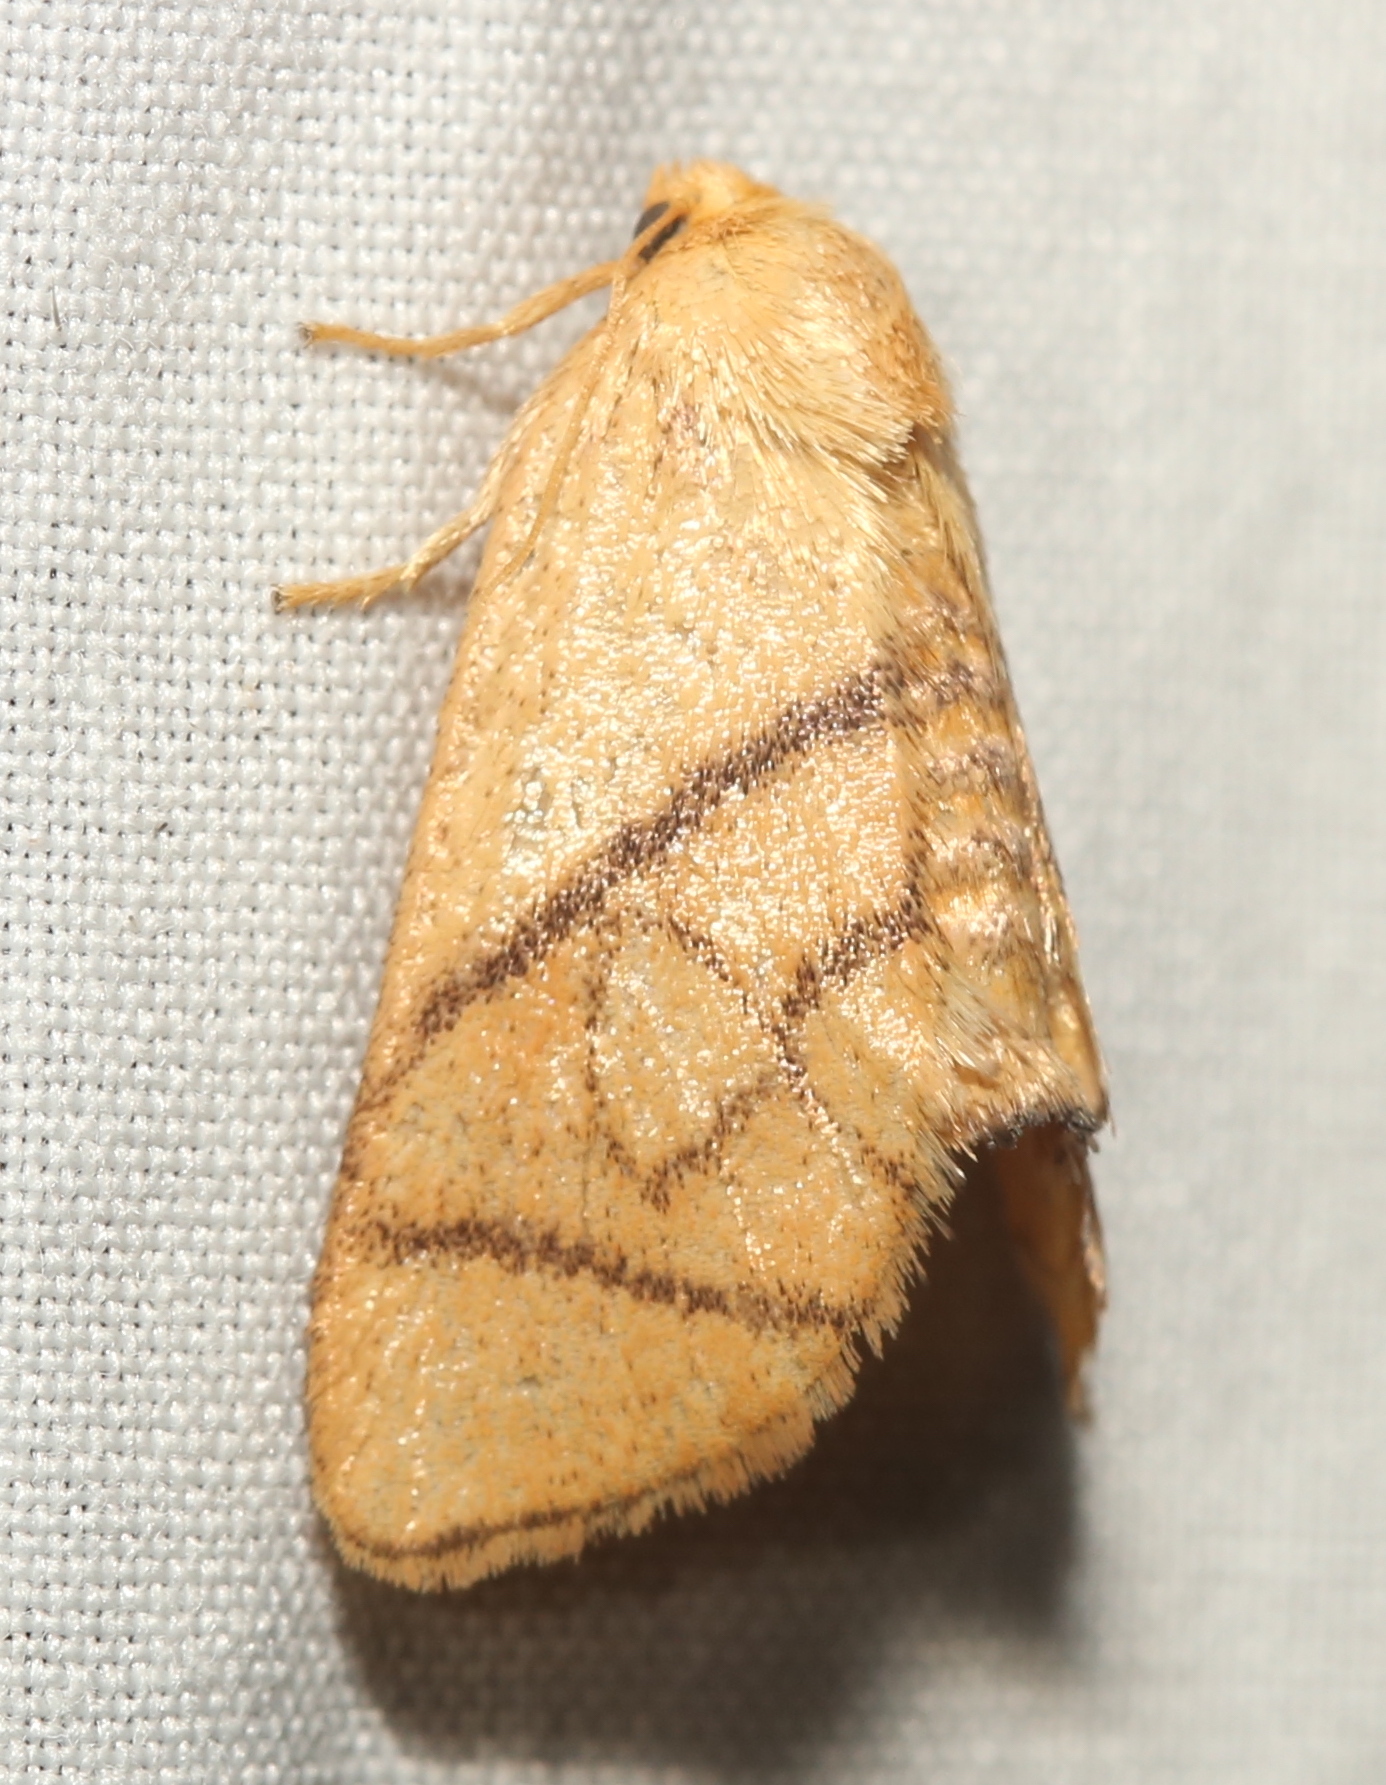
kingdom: Animalia
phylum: Arthropoda
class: Insecta
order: Lepidoptera
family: Limacodidae
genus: Apoda
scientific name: Apoda y-inversa
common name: Yellow-collared slug moth
